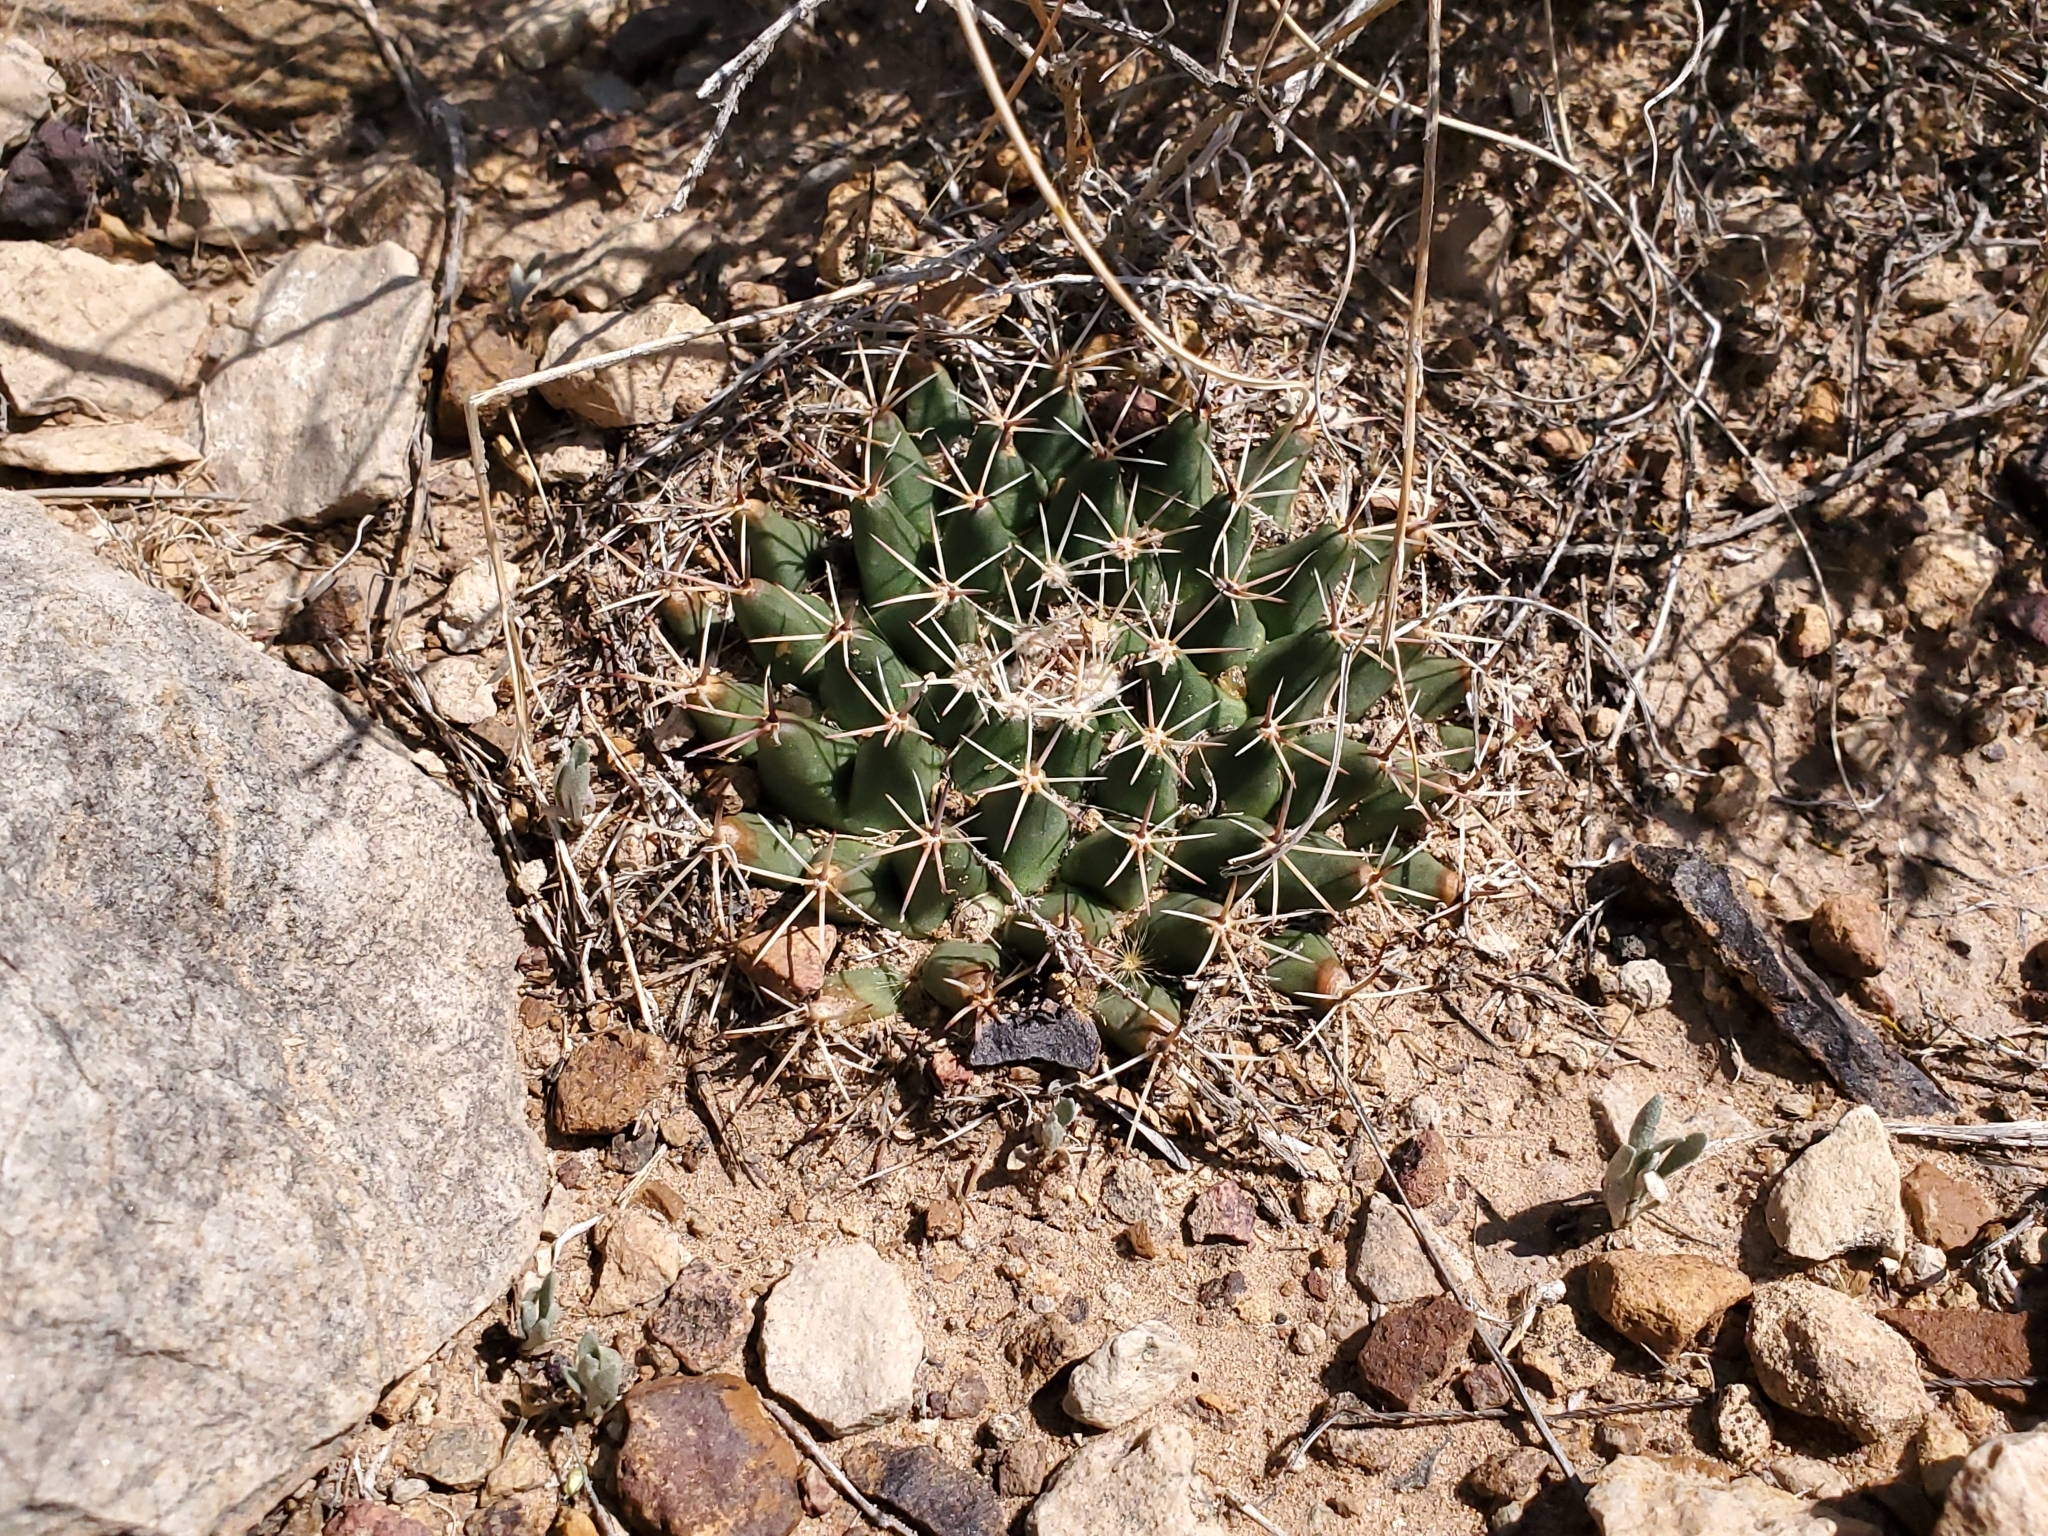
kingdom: Plantae
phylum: Tracheophyta
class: Magnoliopsida
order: Caryophyllales
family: Cactaceae
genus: Mammillaria
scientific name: Mammillaria heyderi
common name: Little nipple cactus
